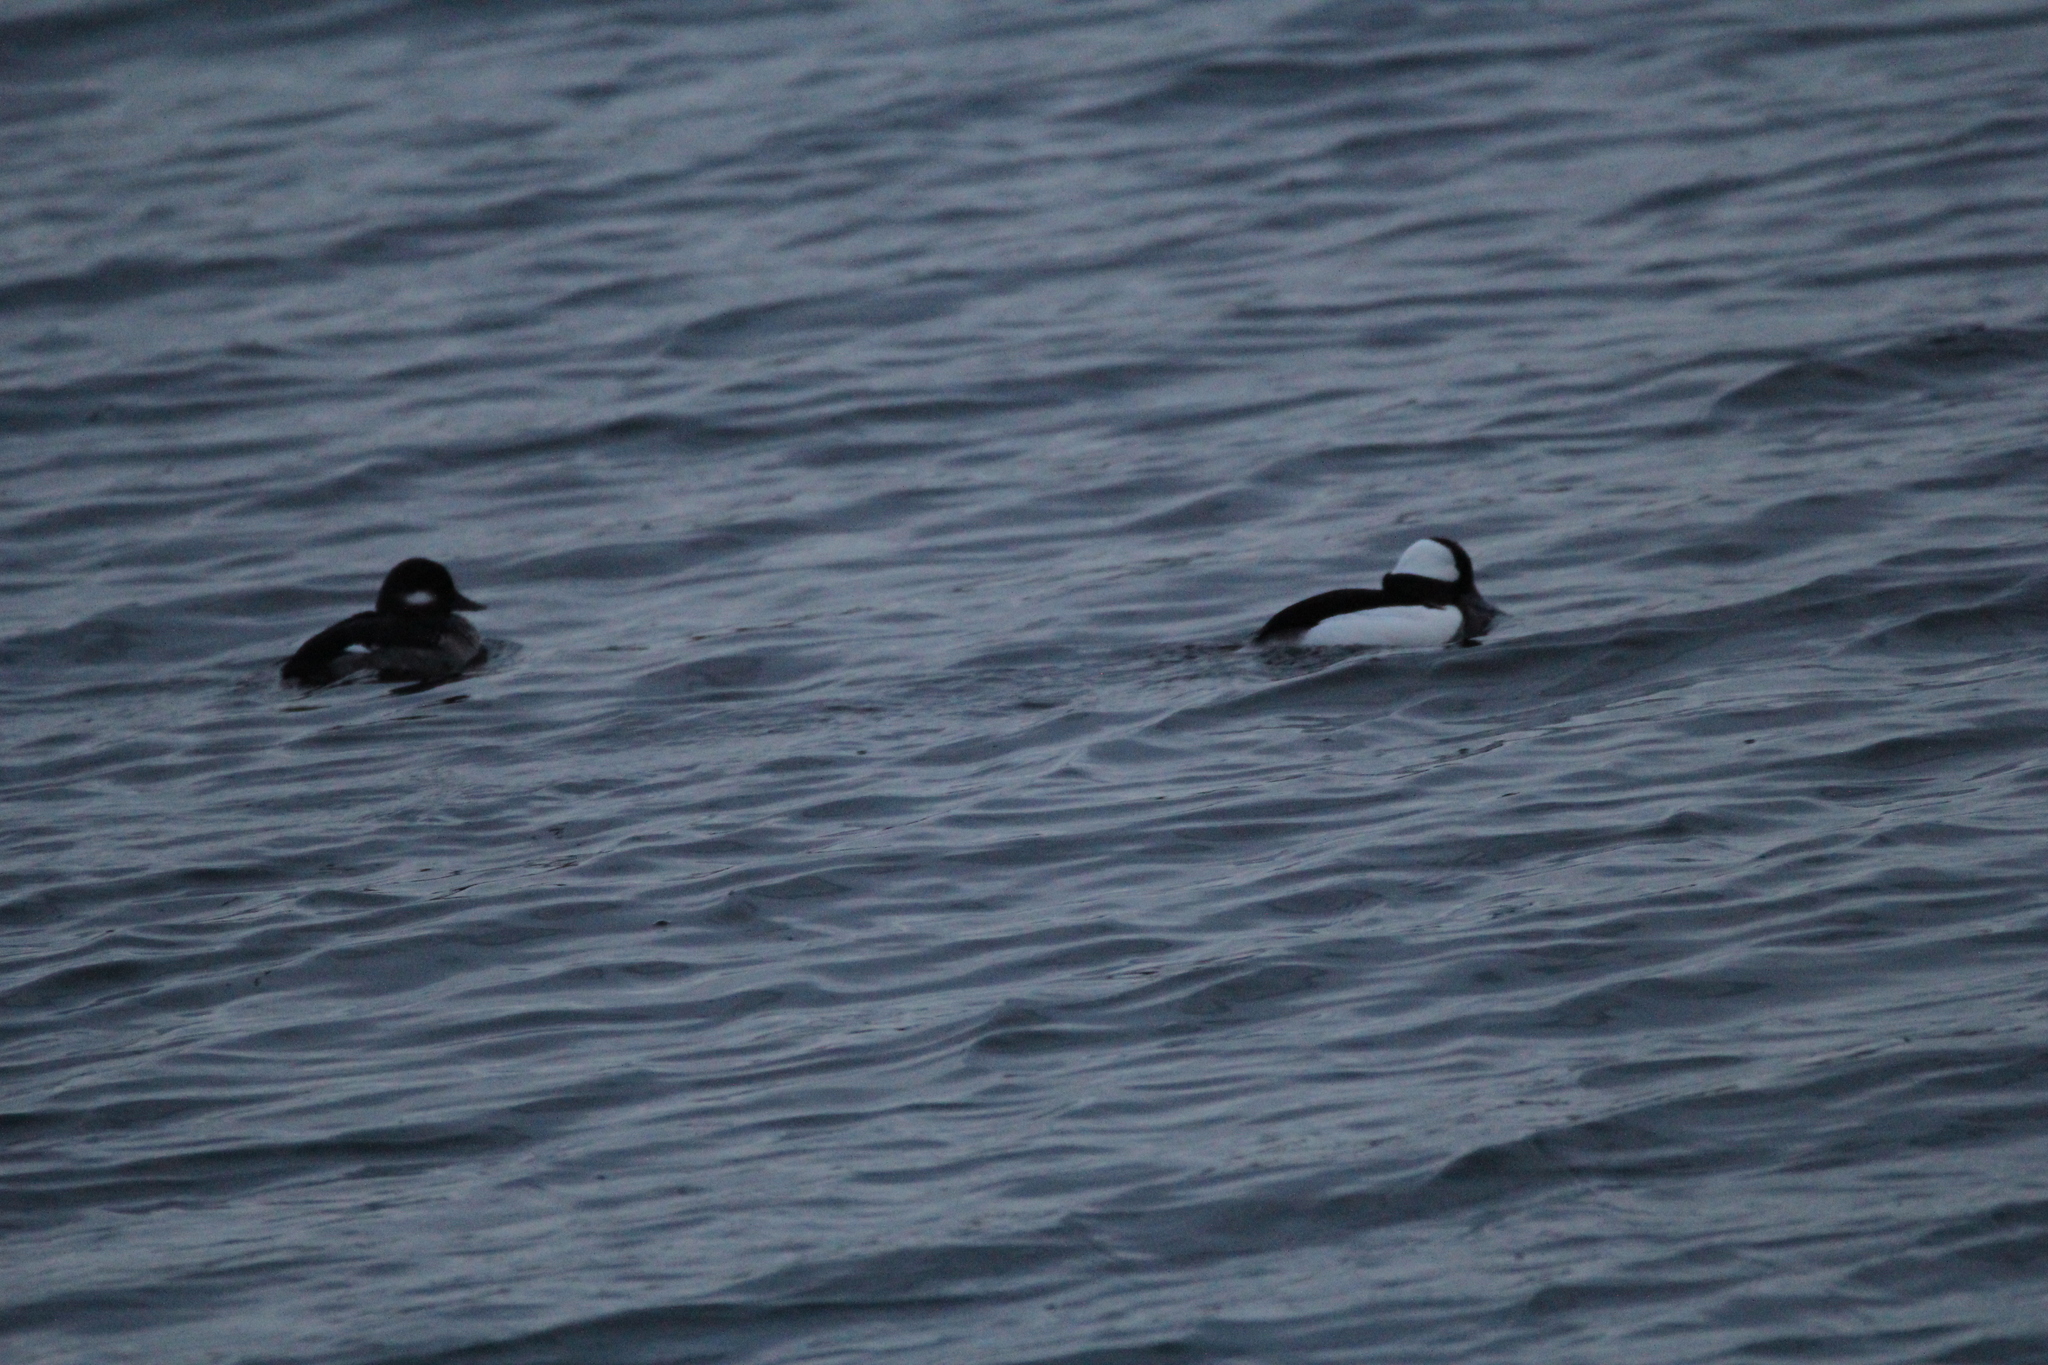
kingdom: Animalia
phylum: Chordata
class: Aves
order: Anseriformes
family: Anatidae
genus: Bucephala
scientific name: Bucephala albeola
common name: Bufflehead
